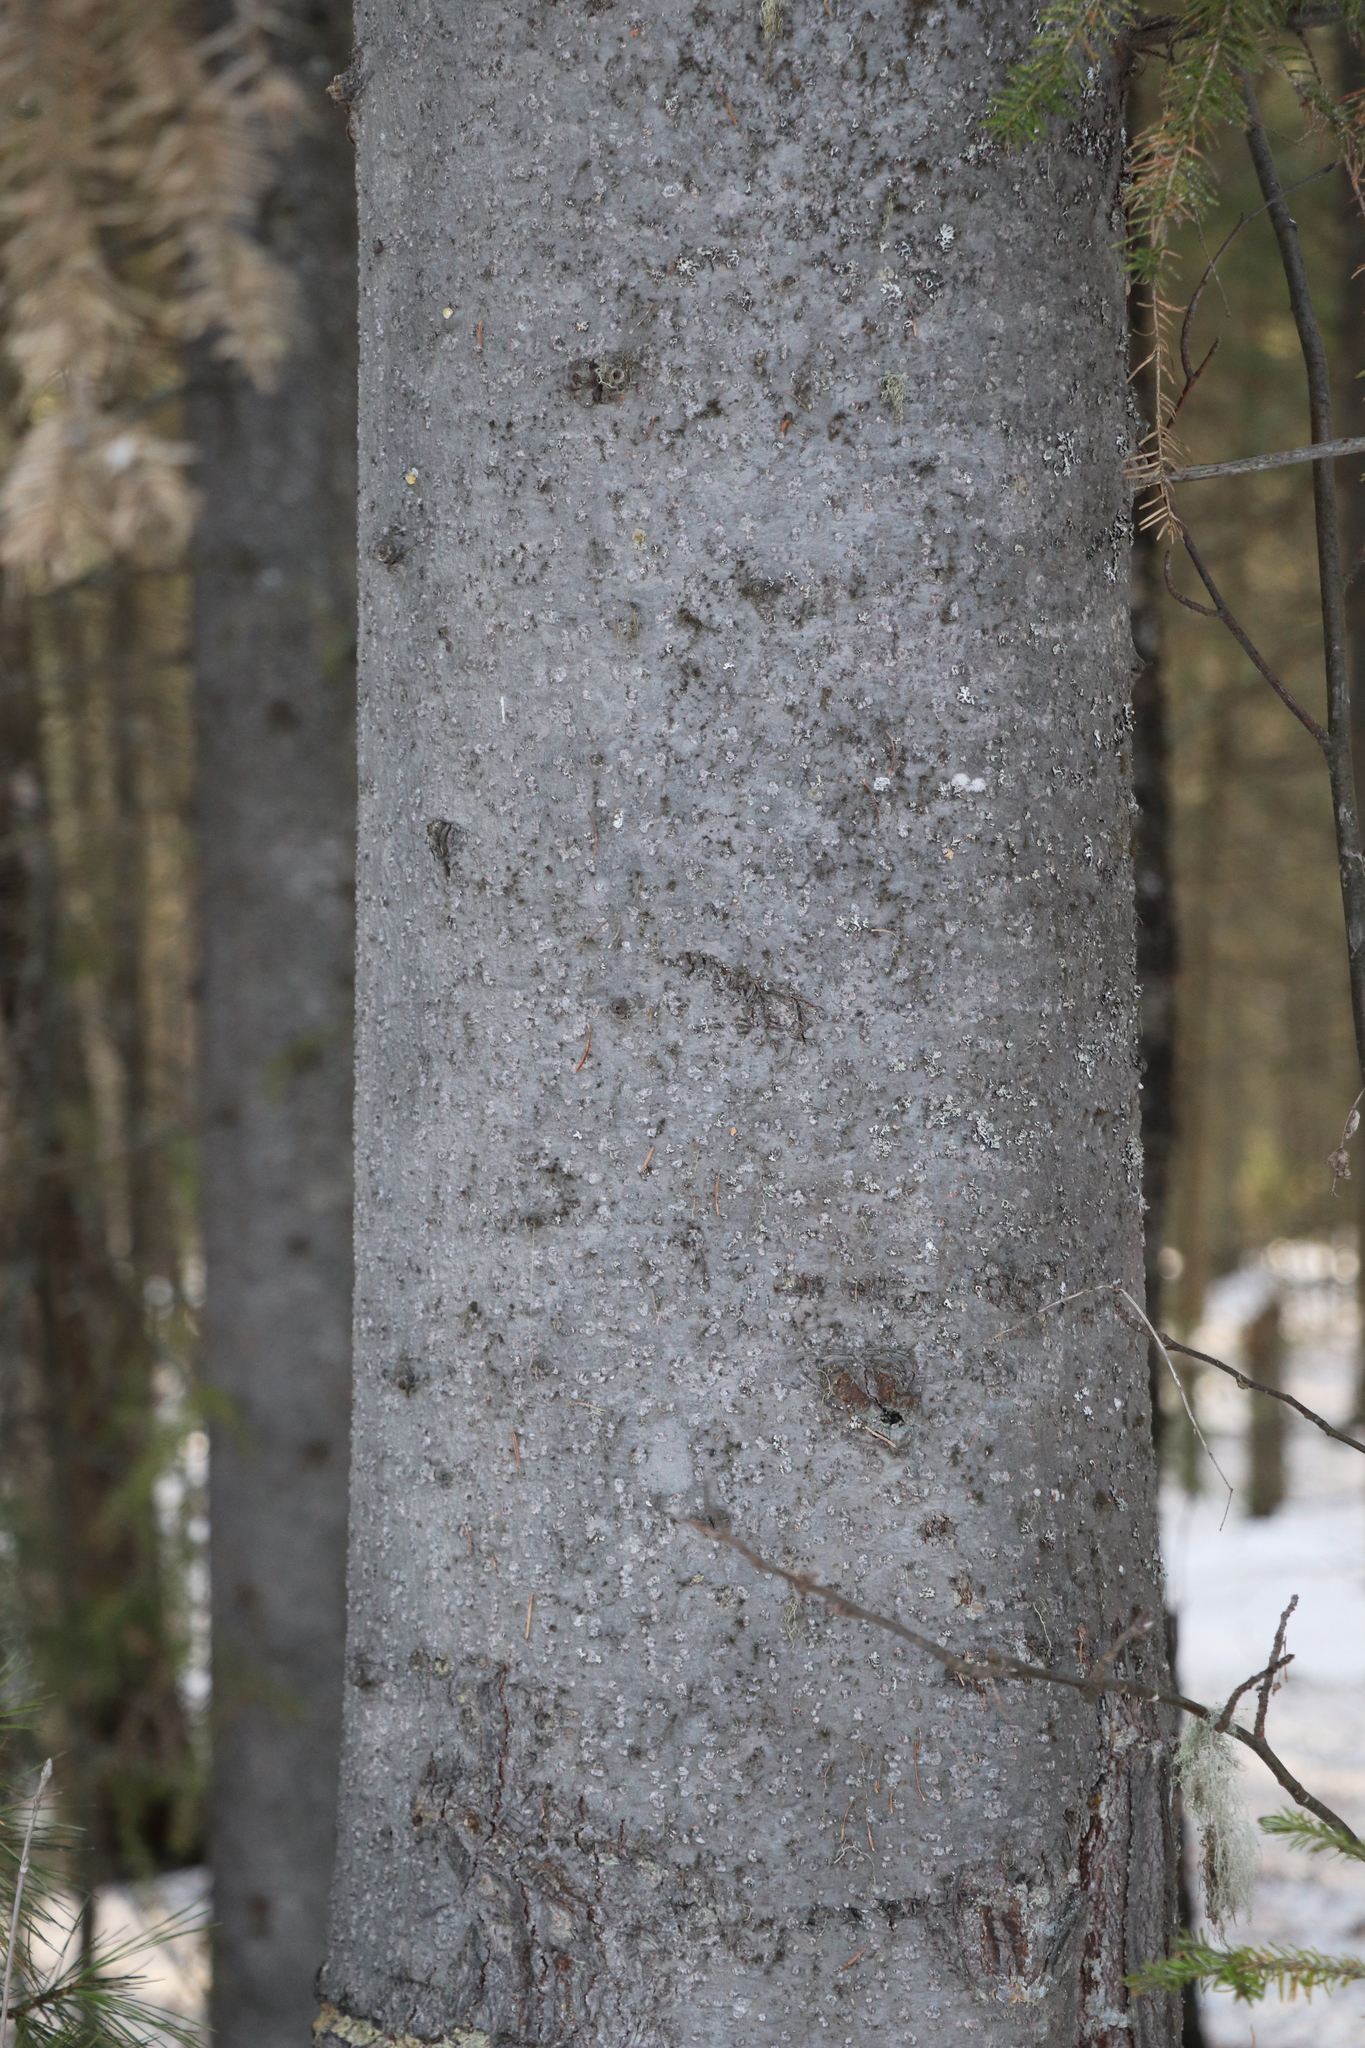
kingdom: Plantae
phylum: Tracheophyta
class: Pinopsida
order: Pinales
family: Pinaceae
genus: Abies
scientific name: Abies sibirica
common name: Siberian fir
